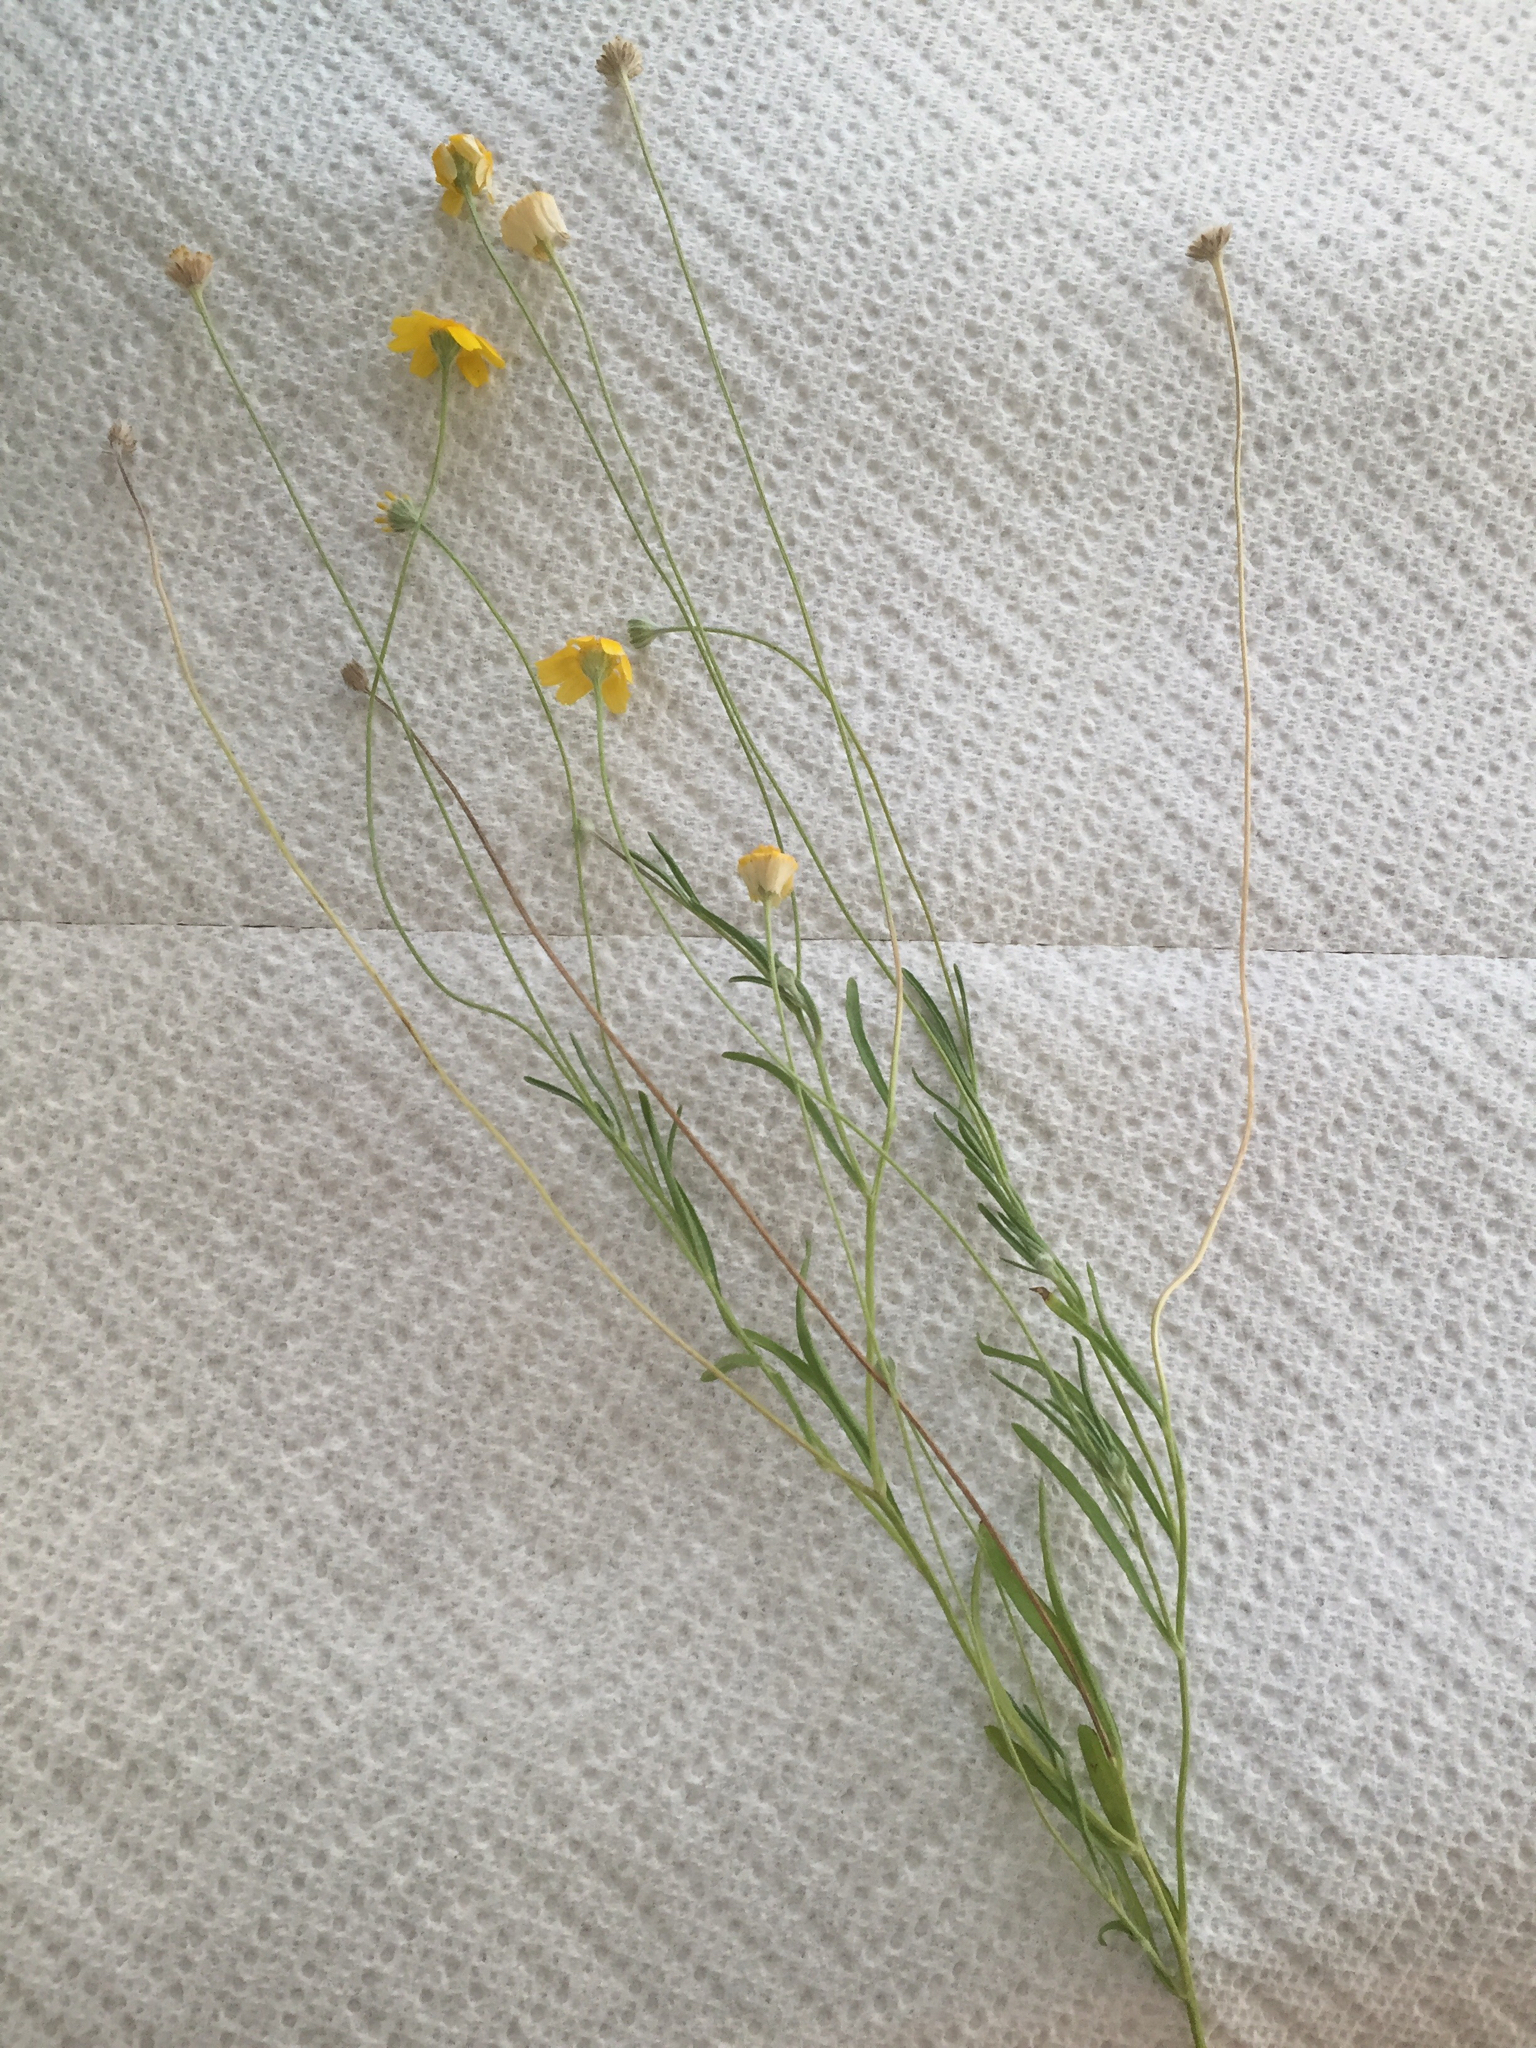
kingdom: Plantae
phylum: Tracheophyta
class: Magnoliopsida
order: Asterales
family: Asteraceae
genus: Tetraneuris
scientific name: Tetraneuris linearifolia
